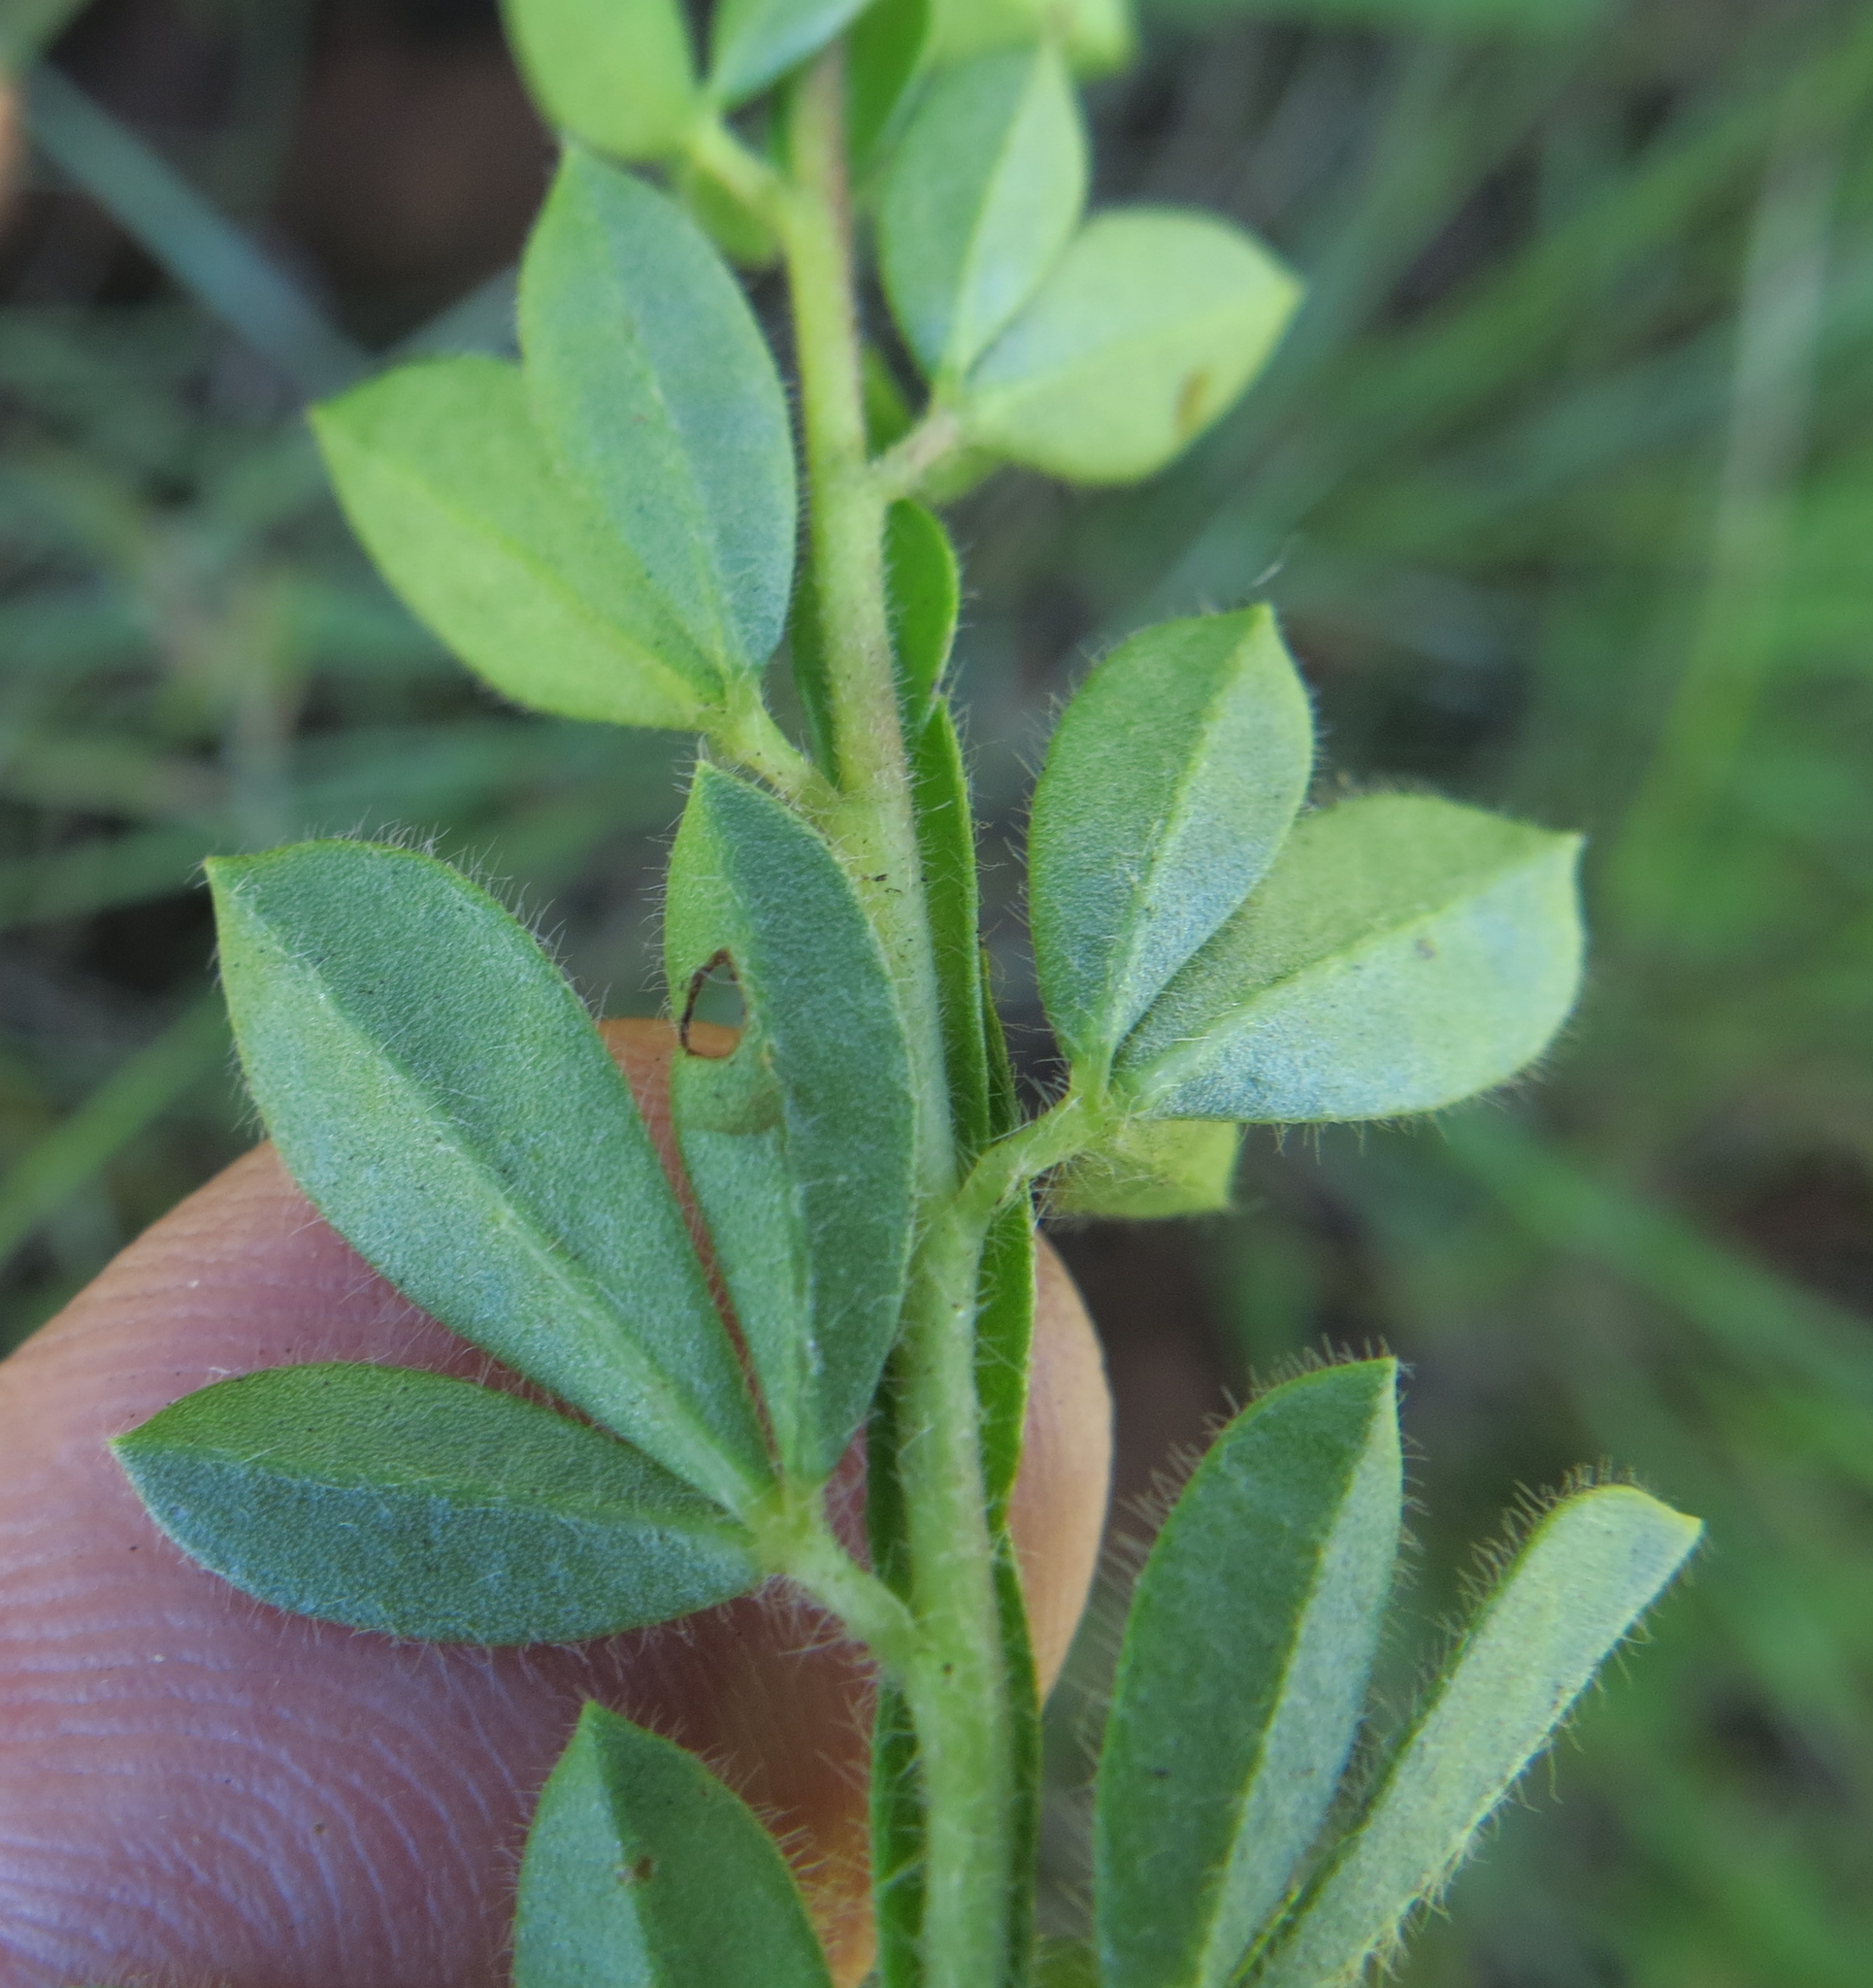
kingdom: Plantae
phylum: Tracheophyta
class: Magnoliopsida
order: Fabales
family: Fabaceae
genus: Leobordea
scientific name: Leobordea pulchra
